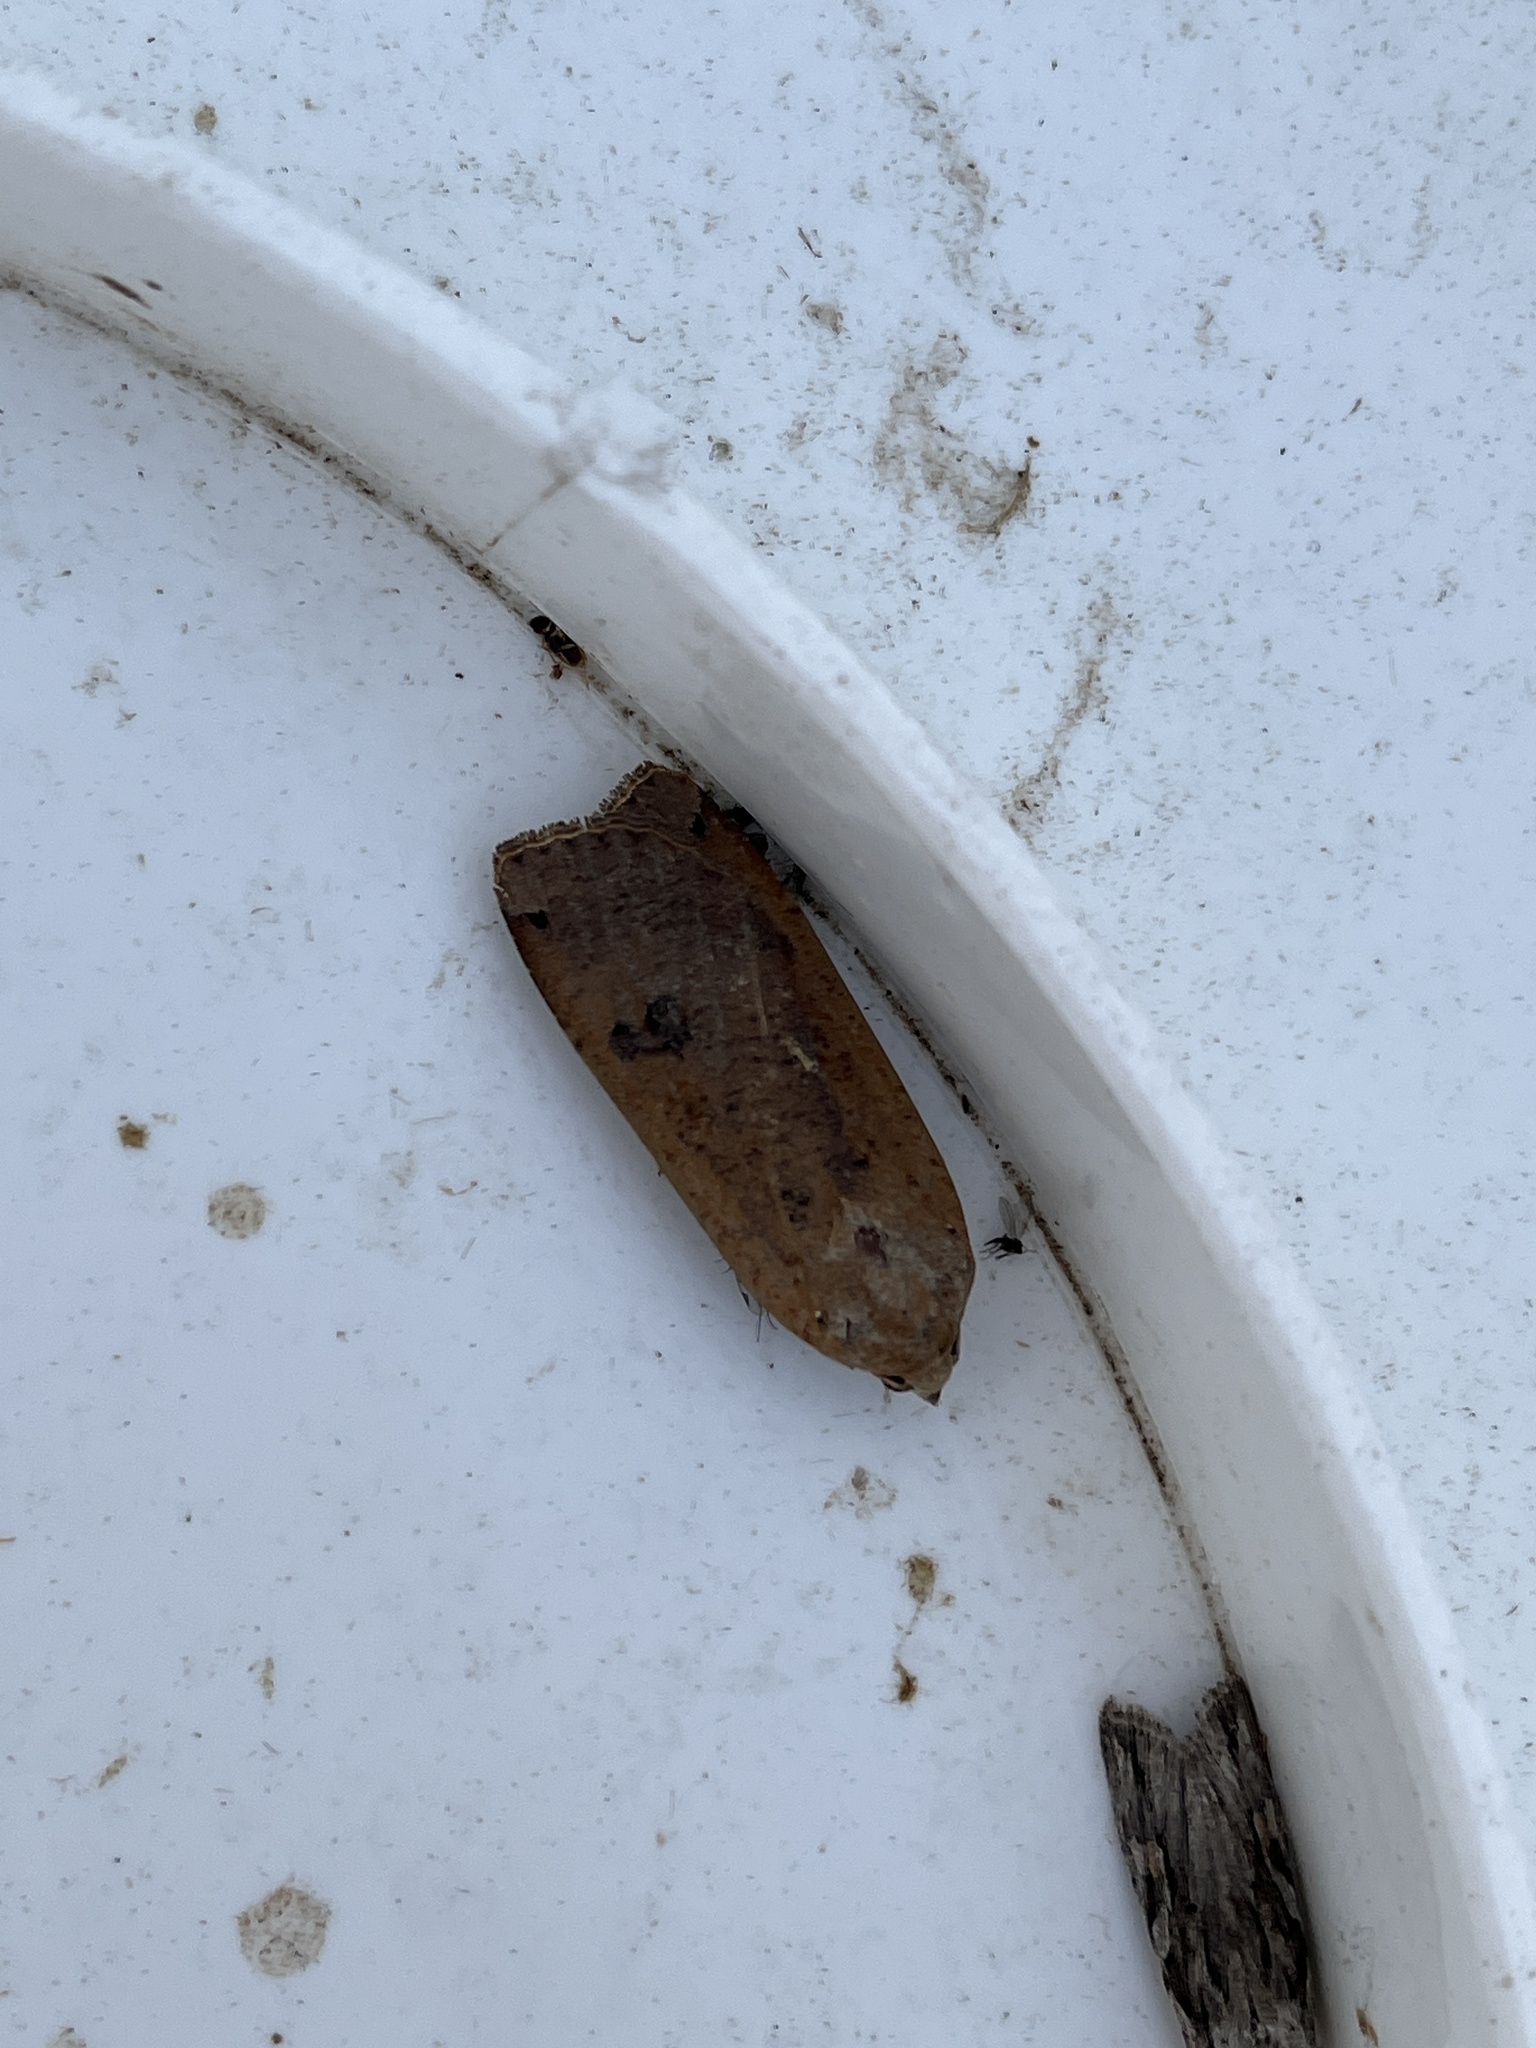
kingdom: Animalia
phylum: Arthropoda
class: Insecta
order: Lepidoptera
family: Noctuidae
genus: Noctua
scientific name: Noctua pronuba
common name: Large yellow underwing
